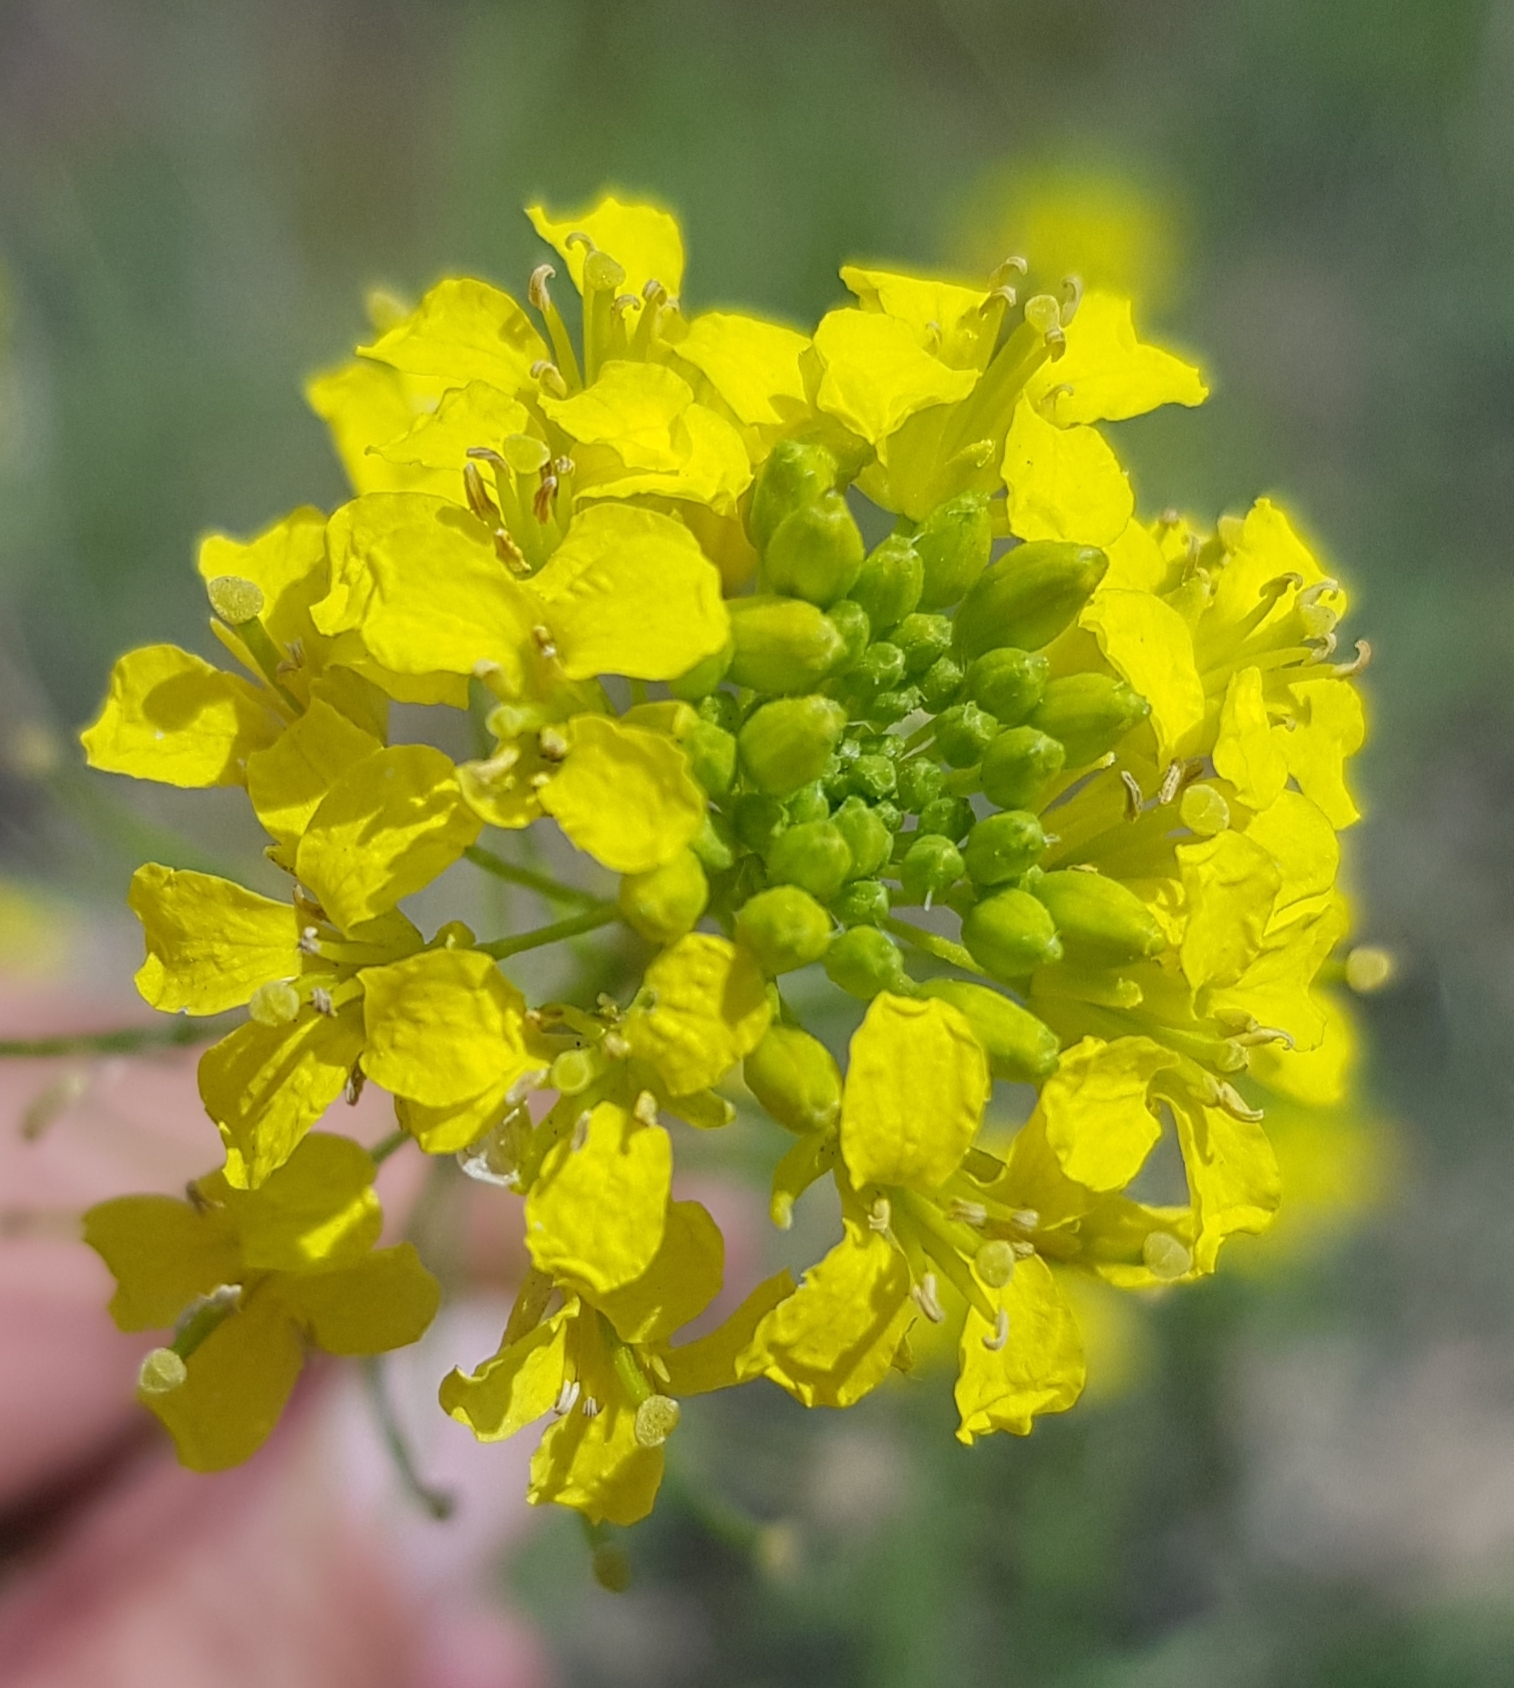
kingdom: Plantae
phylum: Tracheophyta
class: Magnoliopsida
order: Brassicales
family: Brassicaceae
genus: Erysimum
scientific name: Erysimum flavum
